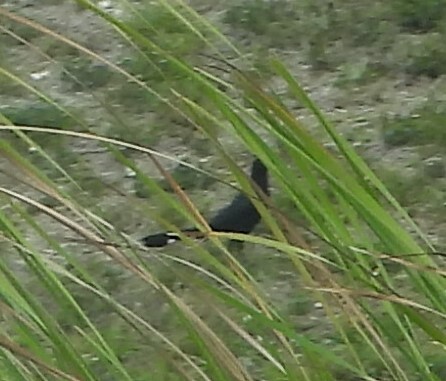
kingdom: Animalia
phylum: Chordata
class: Aves
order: Passeriformes
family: Icteridae
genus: Quiscalus
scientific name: Quiscalus major
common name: Boat-tailed grackle
